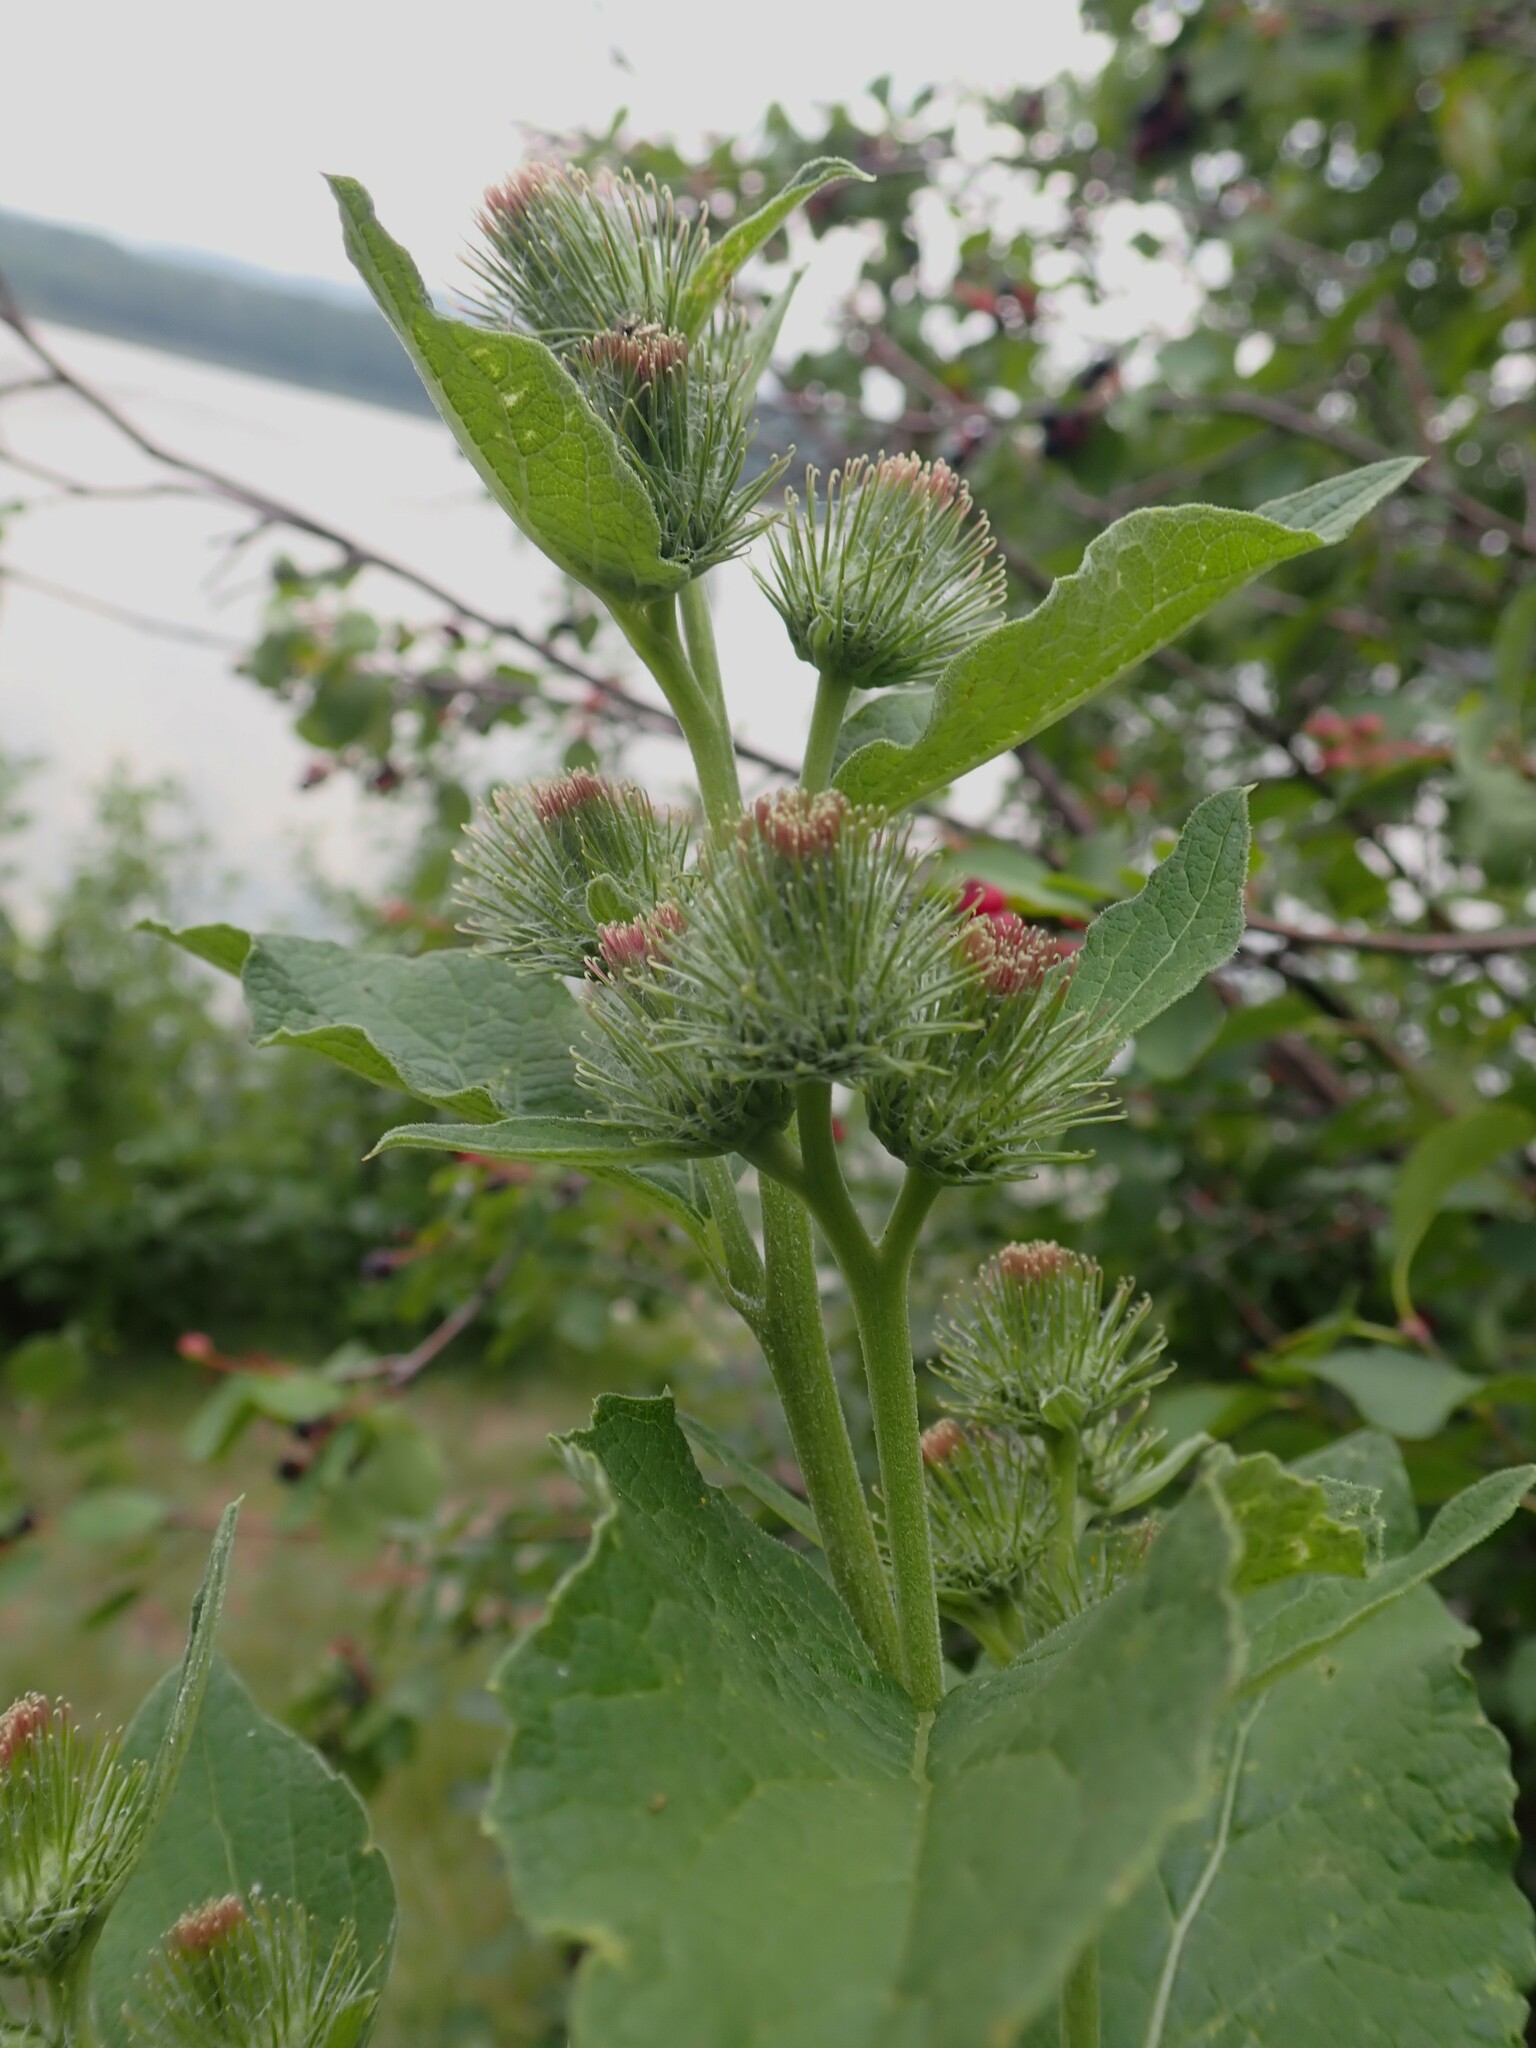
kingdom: Plantae
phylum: Tracheophyta
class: Magnoliopsida
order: Asterales
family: Asteraceae
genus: Arctium
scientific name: Arctium minus
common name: Lesser burdock
